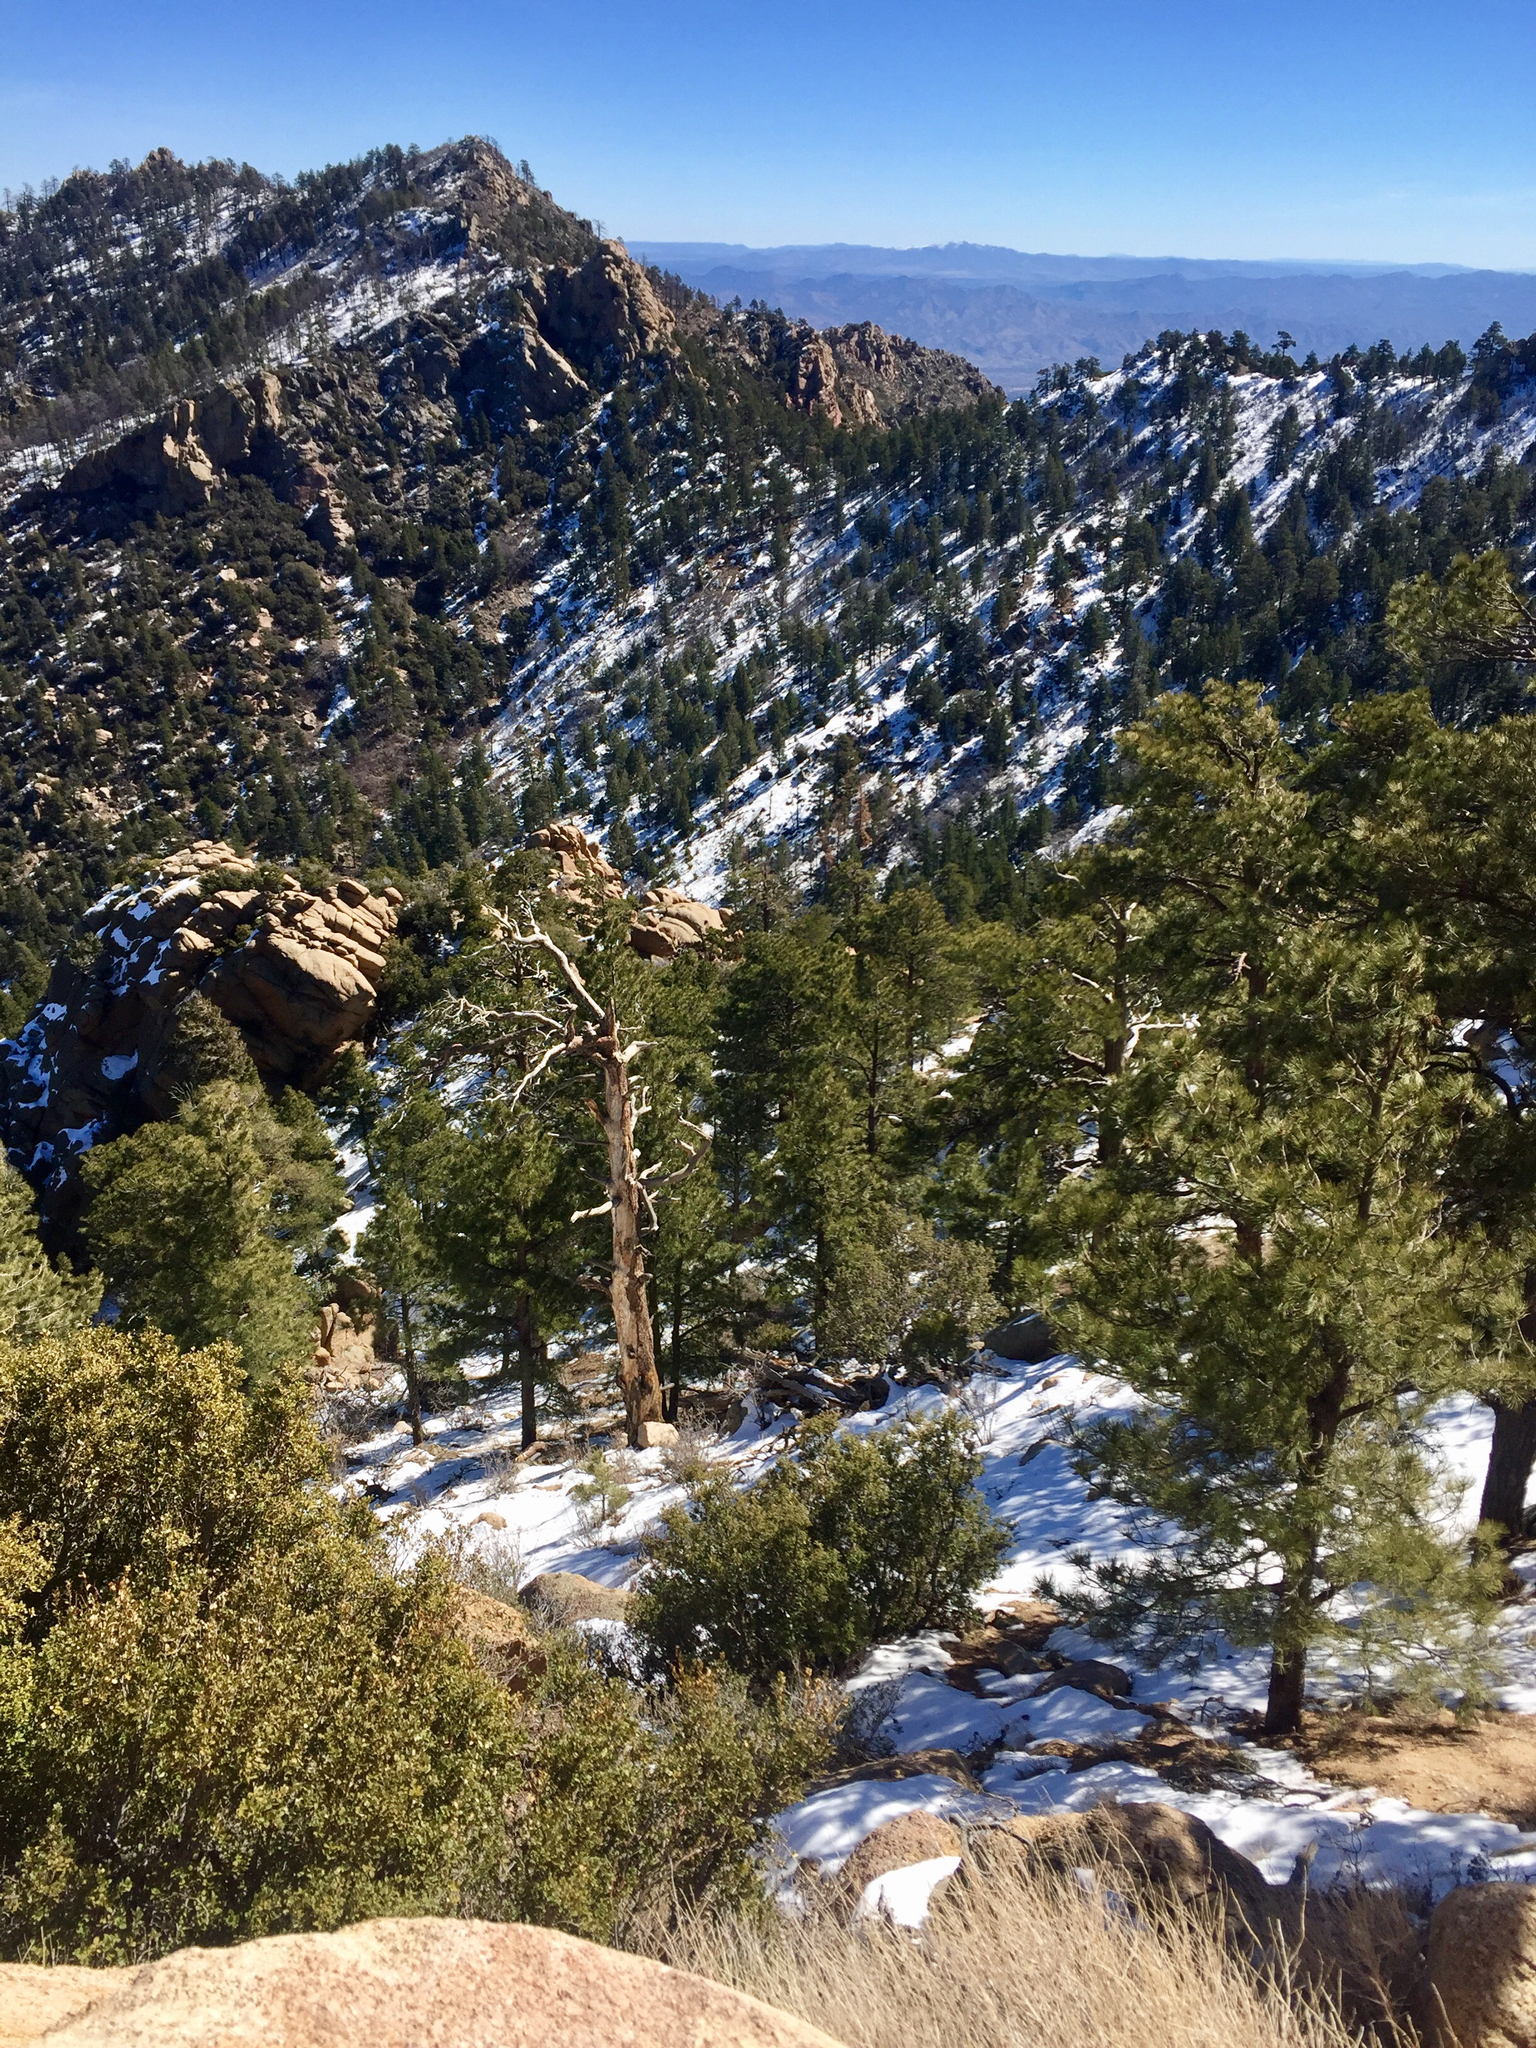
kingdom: Plantae
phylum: Tracheophyta
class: Pinopsida
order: Pinales
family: Pinaceae
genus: Pinus
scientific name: Pinus ponderosa
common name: Western yellow-pine
